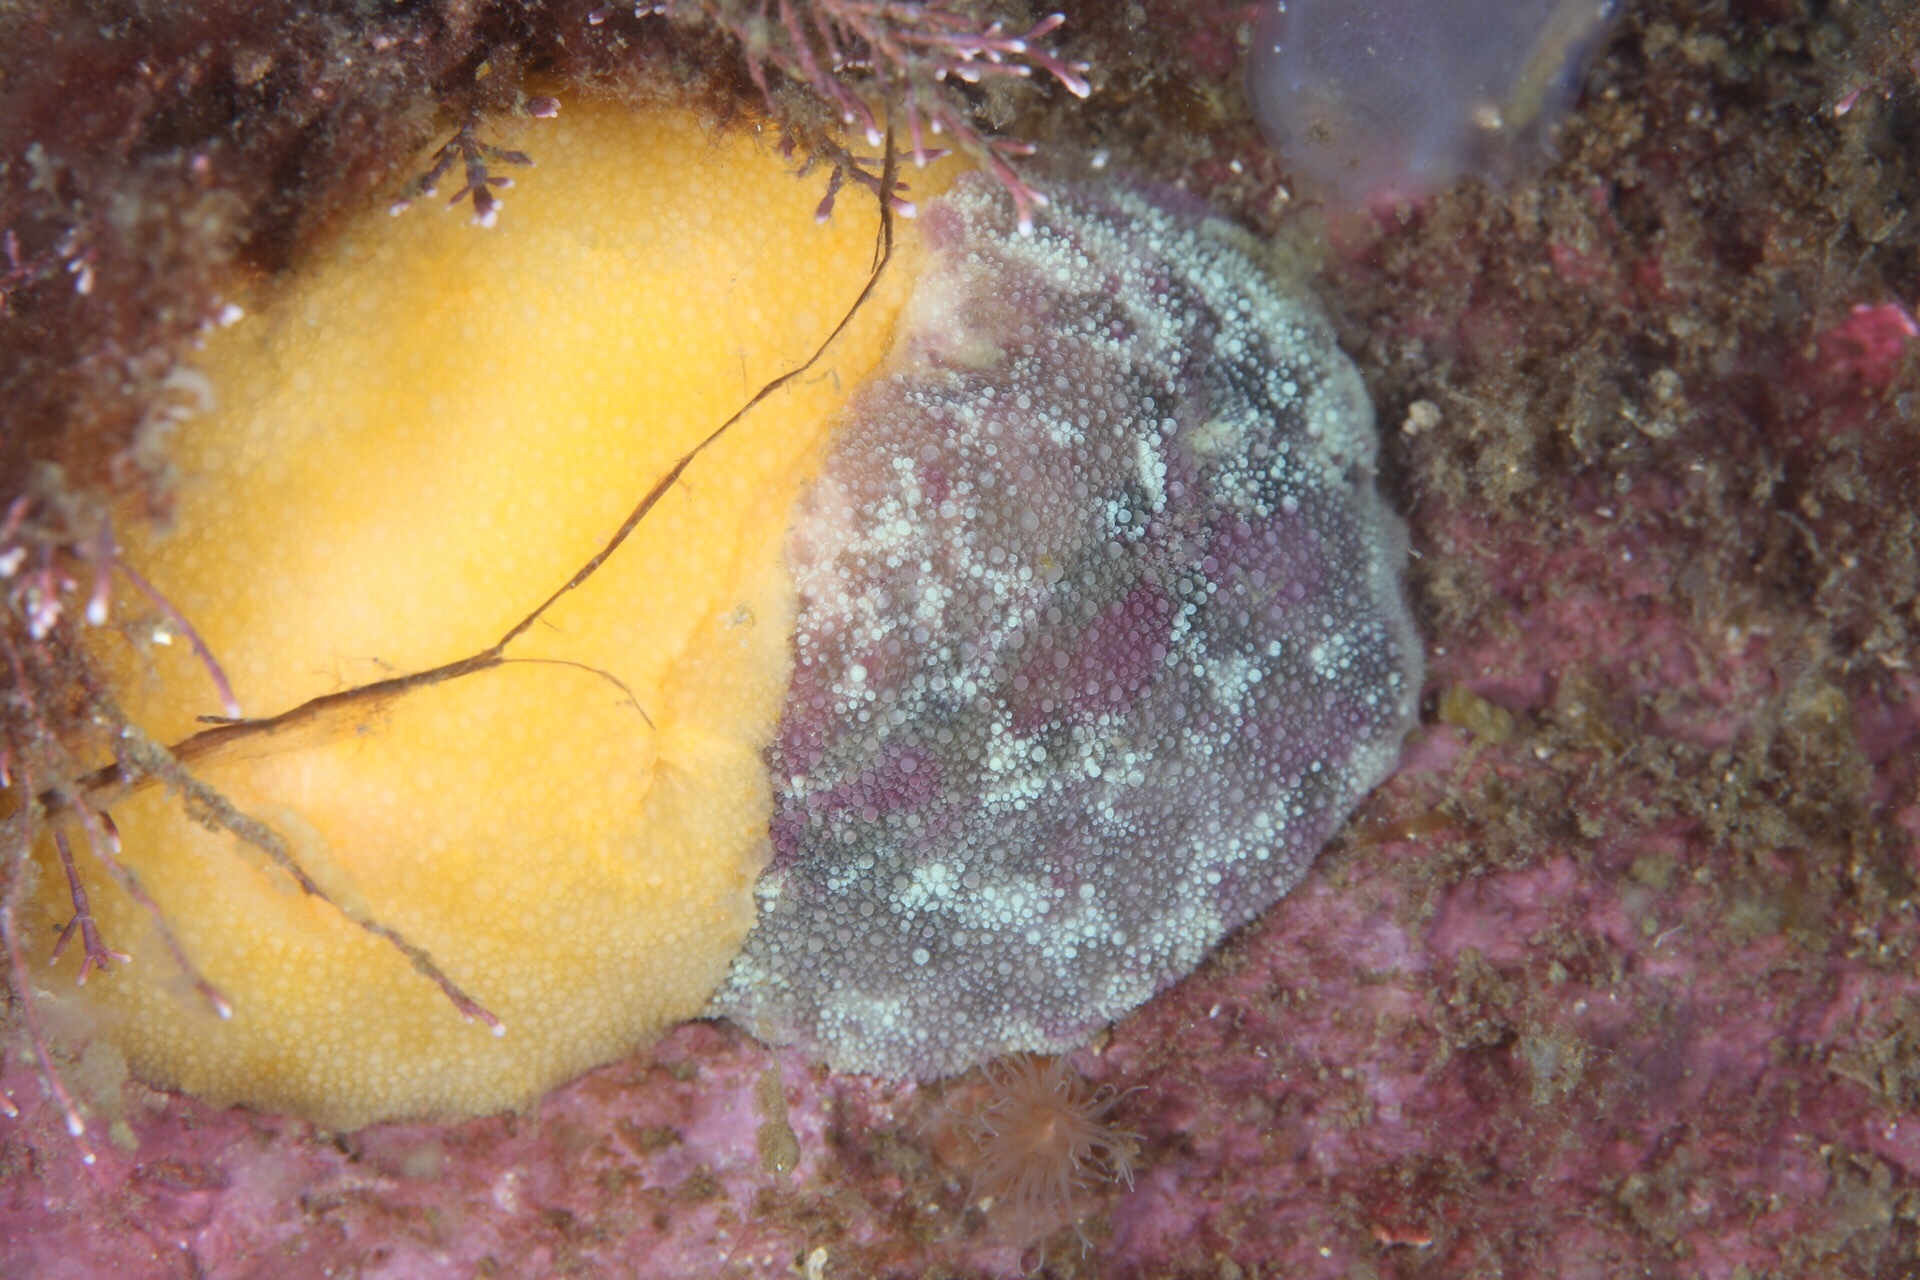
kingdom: Animalia
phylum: Mollusca
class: Gastropoda
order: Nudibranchia
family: Dorididae
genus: Doris
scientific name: Doris pseudoargus
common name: Sea lemon
